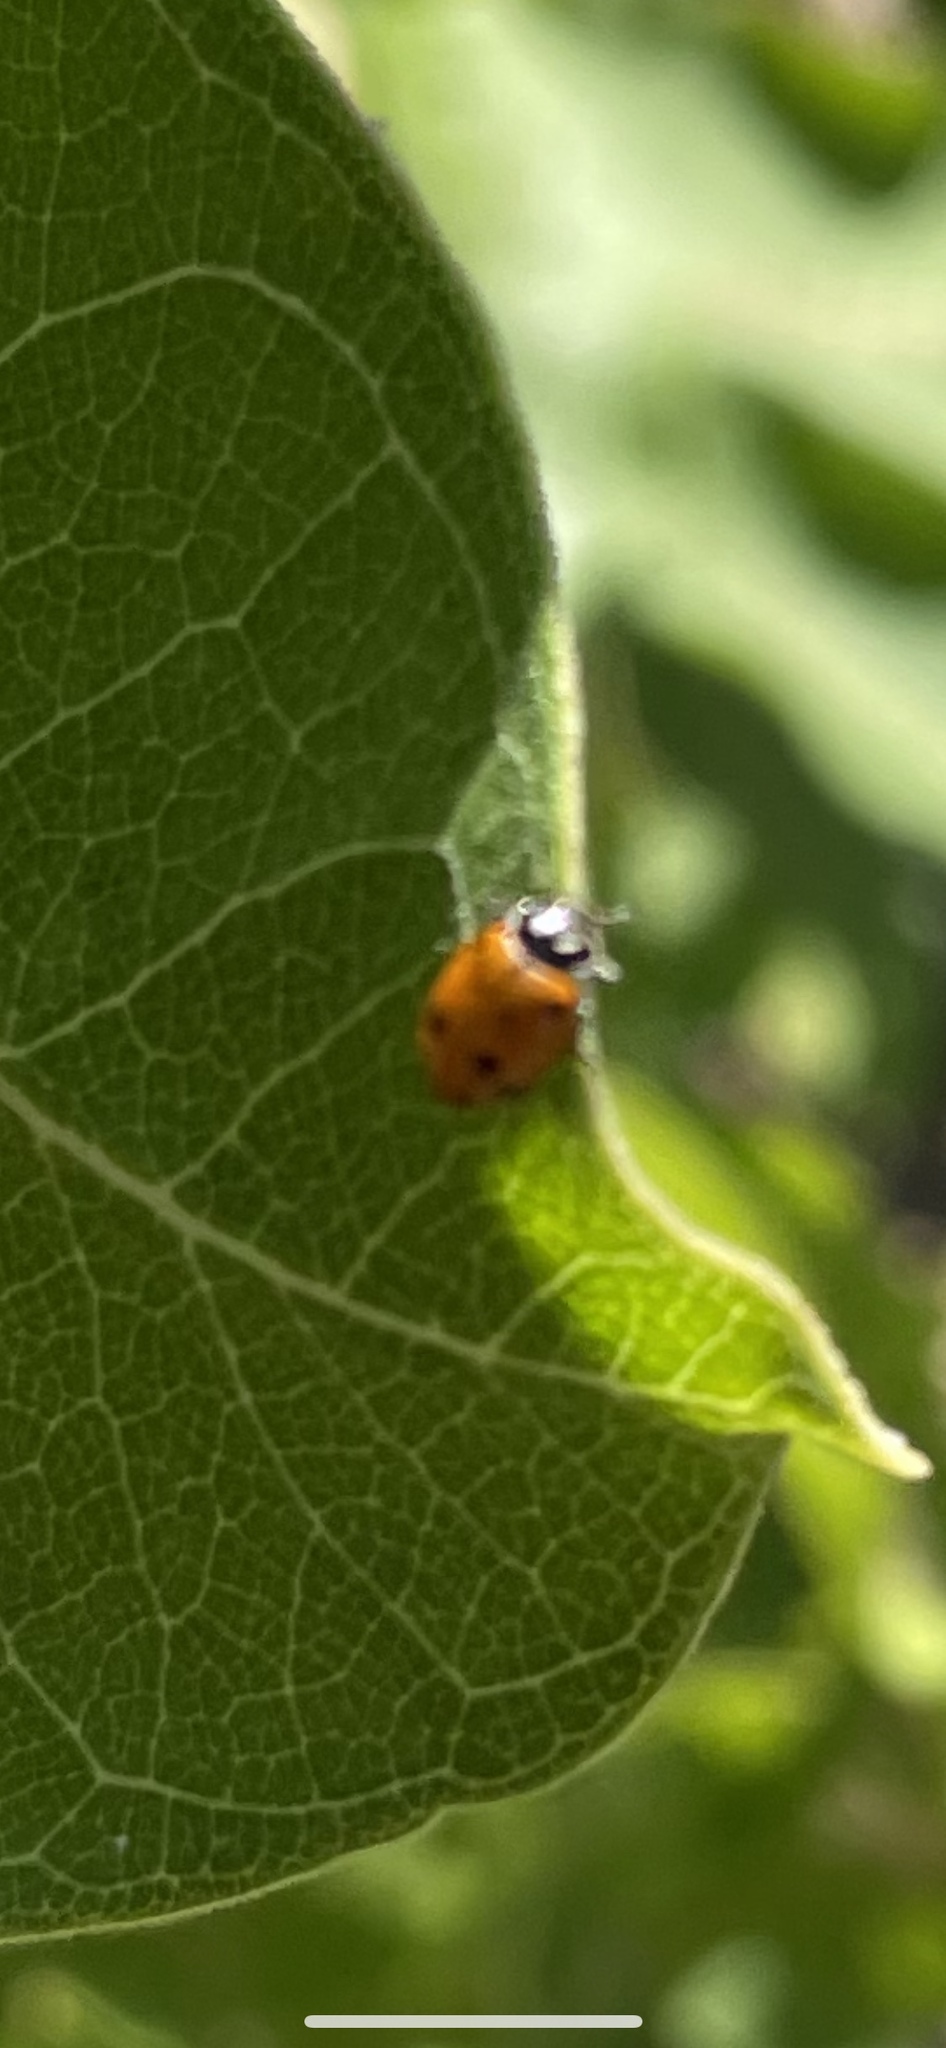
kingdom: Animalia
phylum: Arthropoda
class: Insecta
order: Coleoptera
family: Coccinellidae
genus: Hippodamia
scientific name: Hippodamia convergens
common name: Convergent lady beetle
